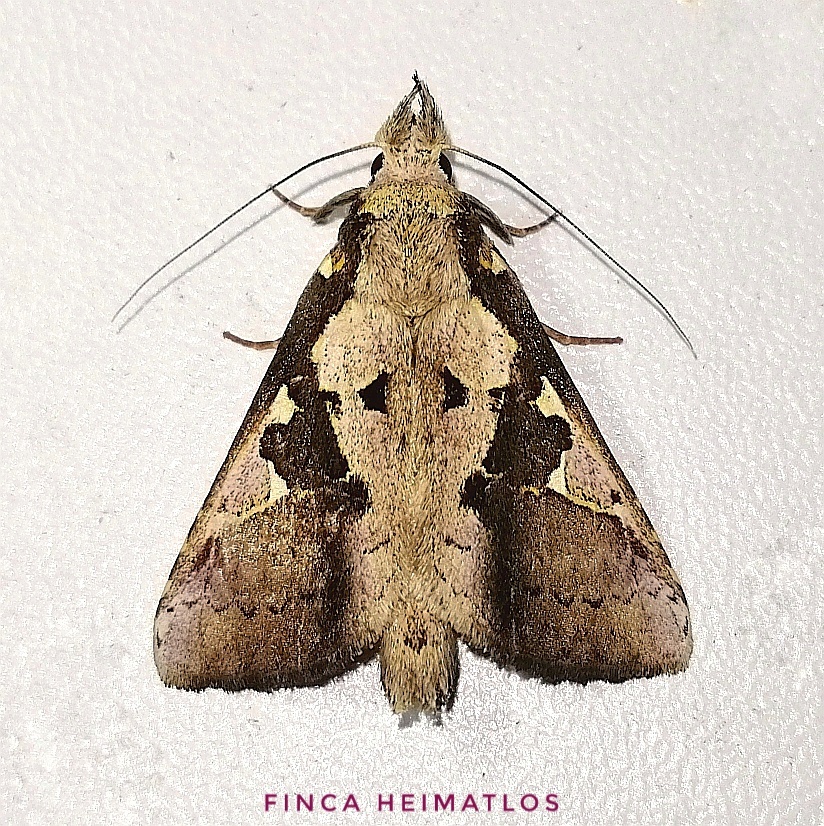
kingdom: Animalia
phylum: Arthropoda
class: Insecta
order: Lepidoptera
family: Notodontidae
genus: Lemairegisa
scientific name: Lemairegisa Lepasta maltha
